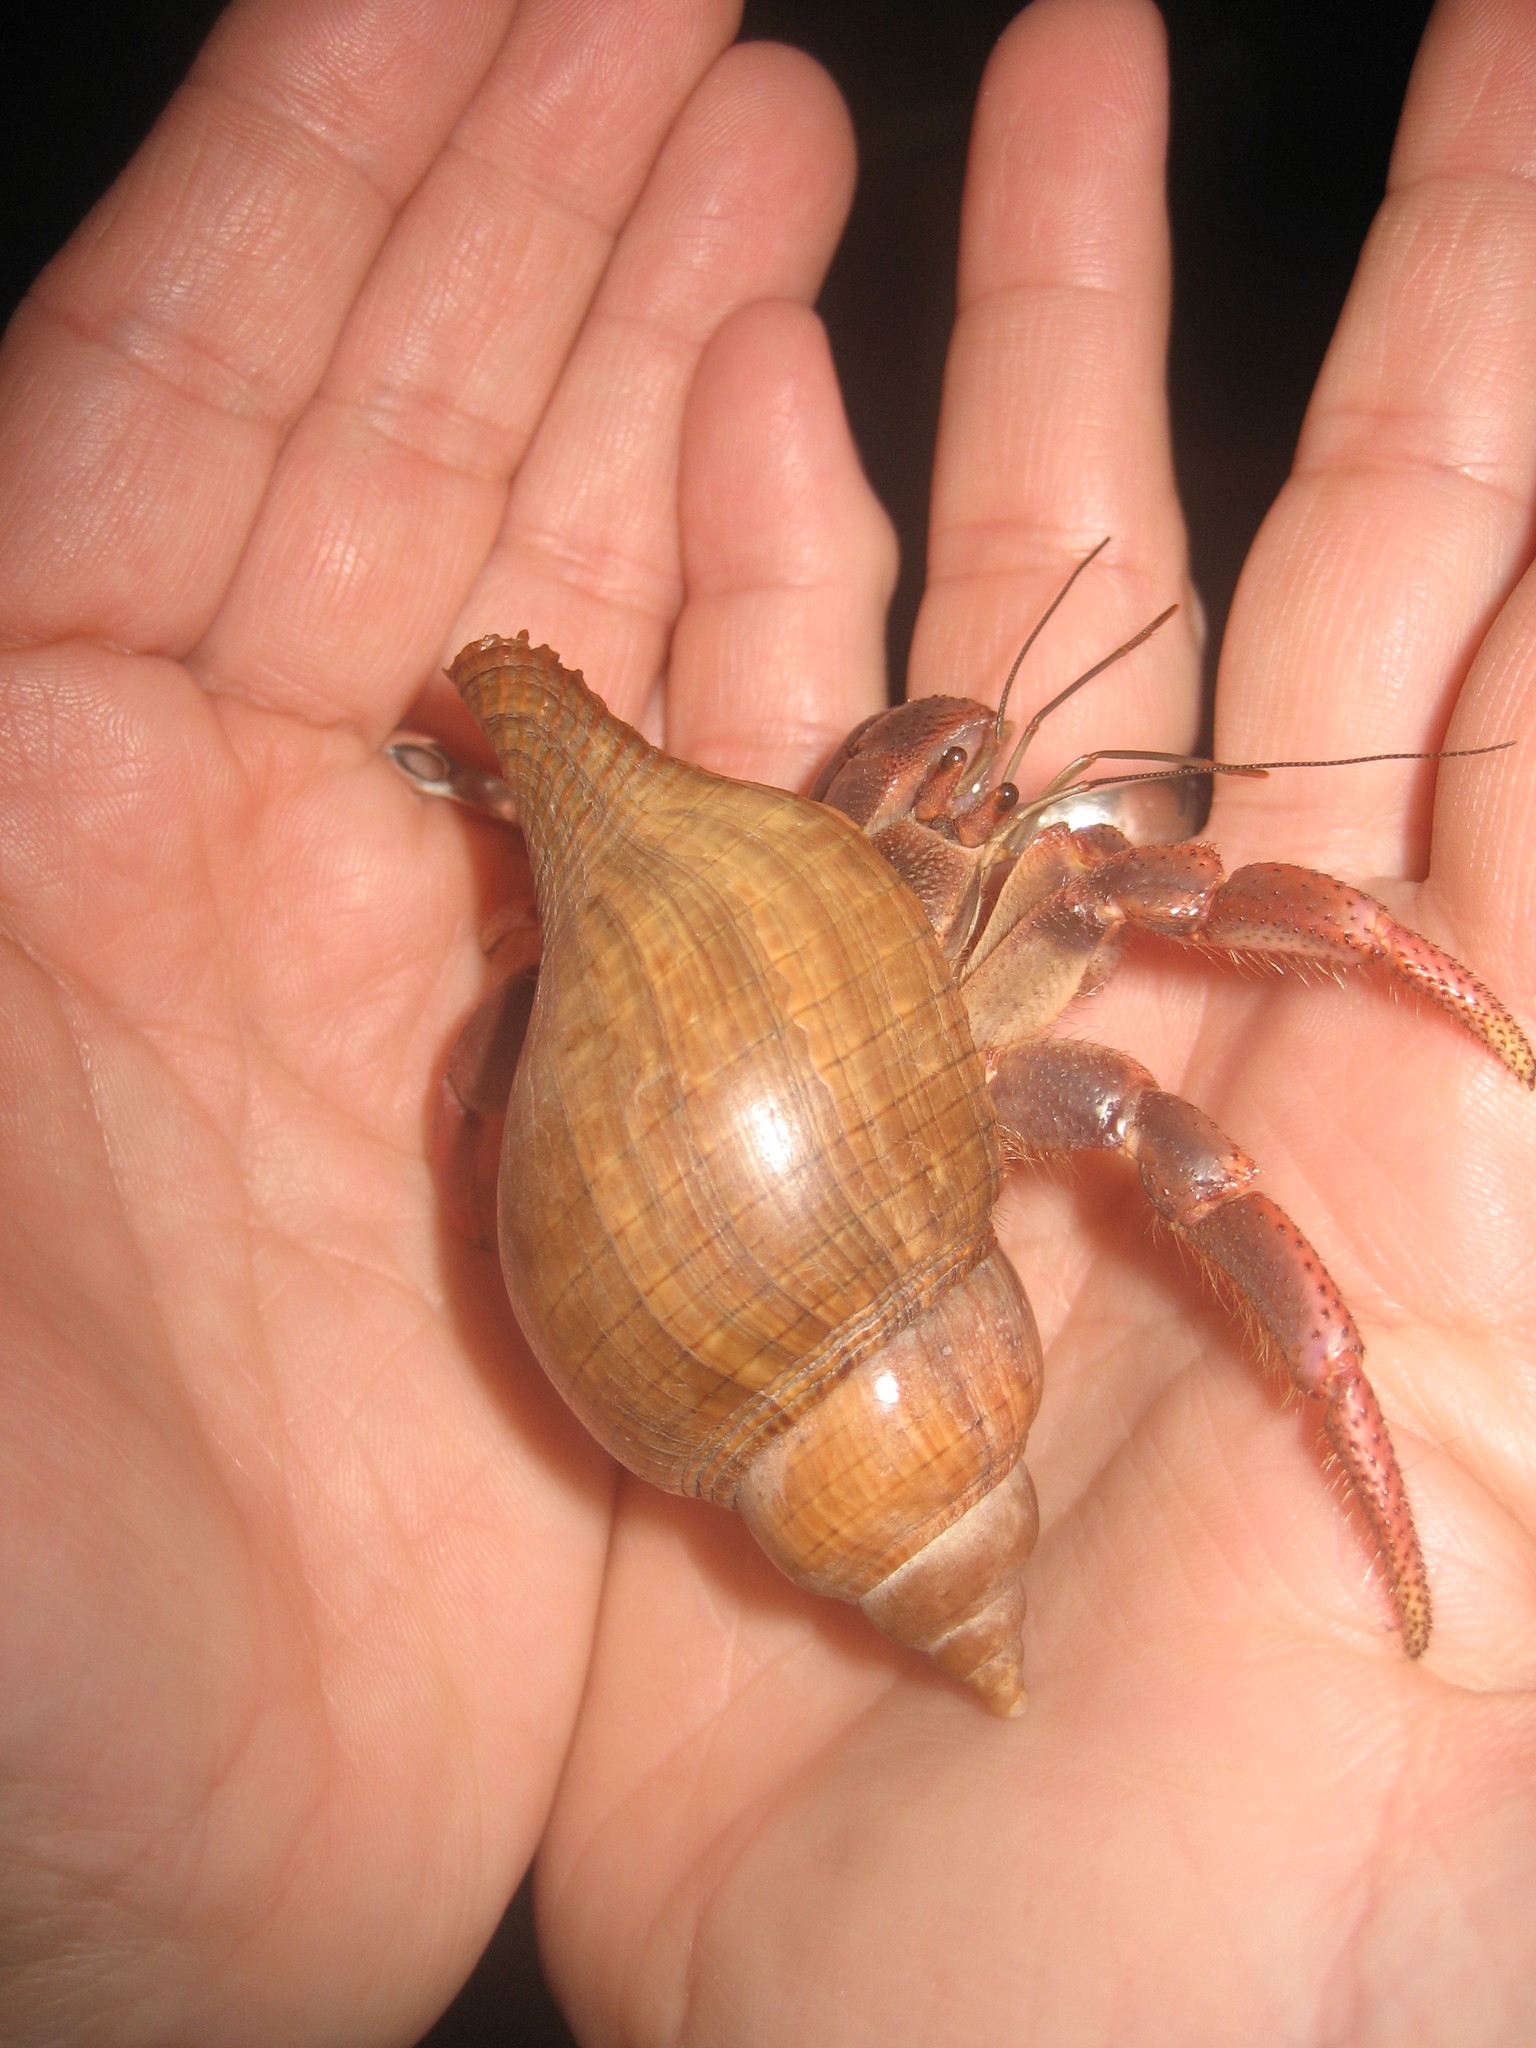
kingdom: Animalia
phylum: Arthropoda
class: Malacostraca
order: Decapoda
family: Coenobitidae
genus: Coenobita
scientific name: Coenobita clypeatus
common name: Caribbean hermit crab
